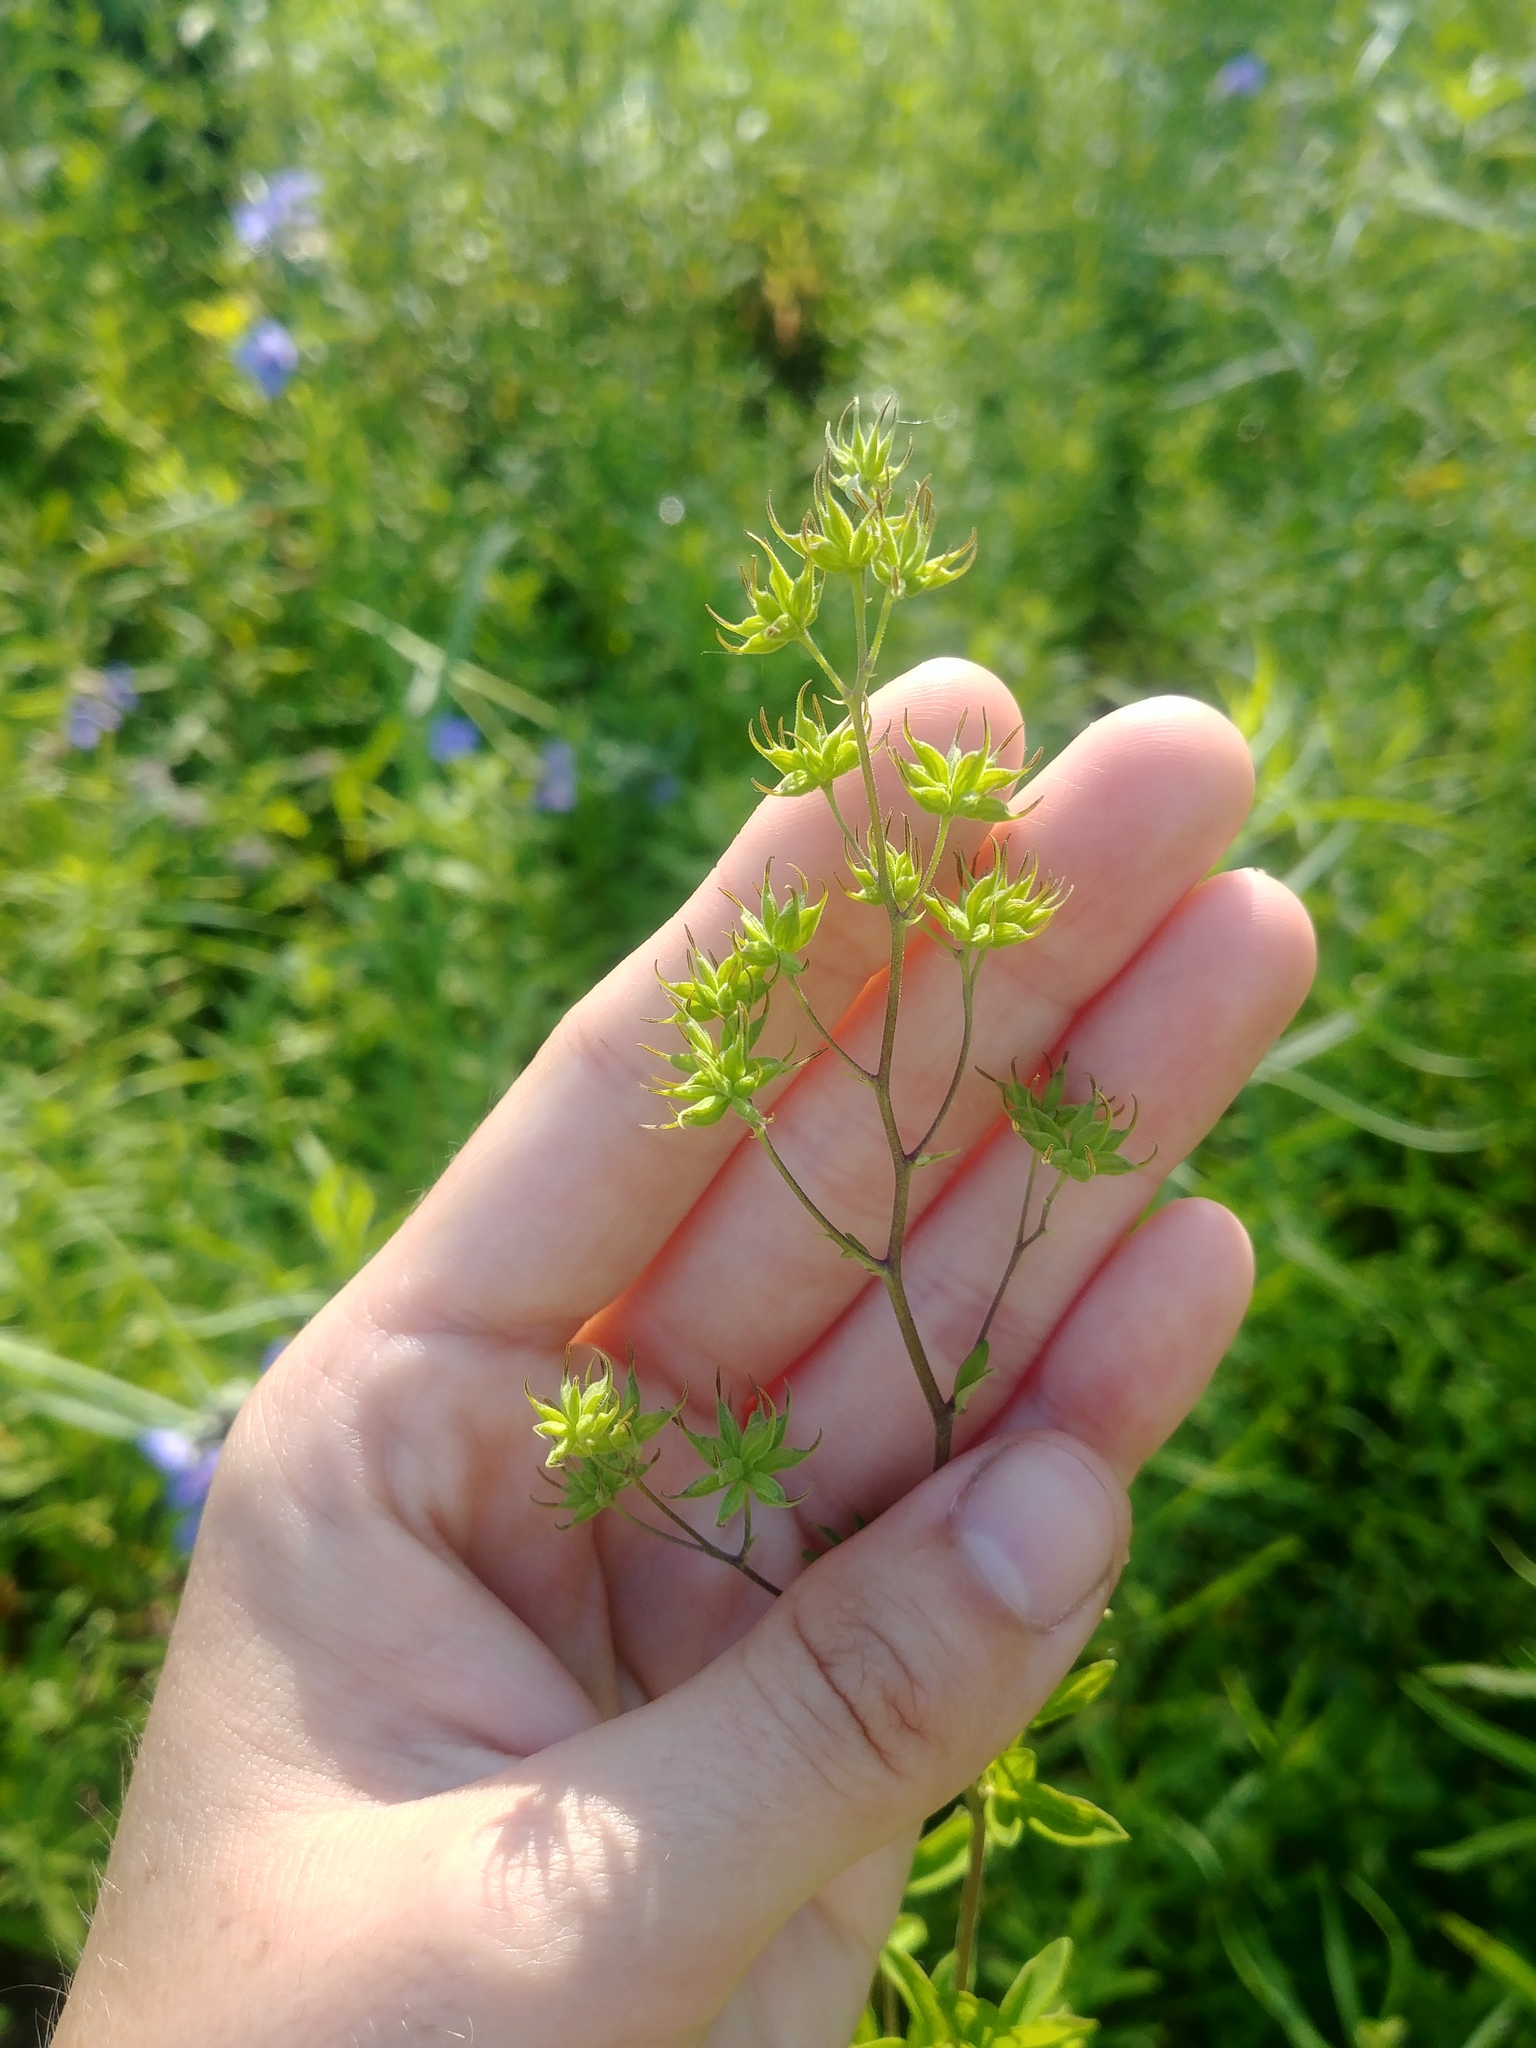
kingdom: Plantae
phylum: Tracheophyta
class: Magnoliopsida
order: Ranunculales
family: Ranunculaceae
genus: Thalictrum
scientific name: Thalictrum revolutum
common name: Waxy meadow-rue
